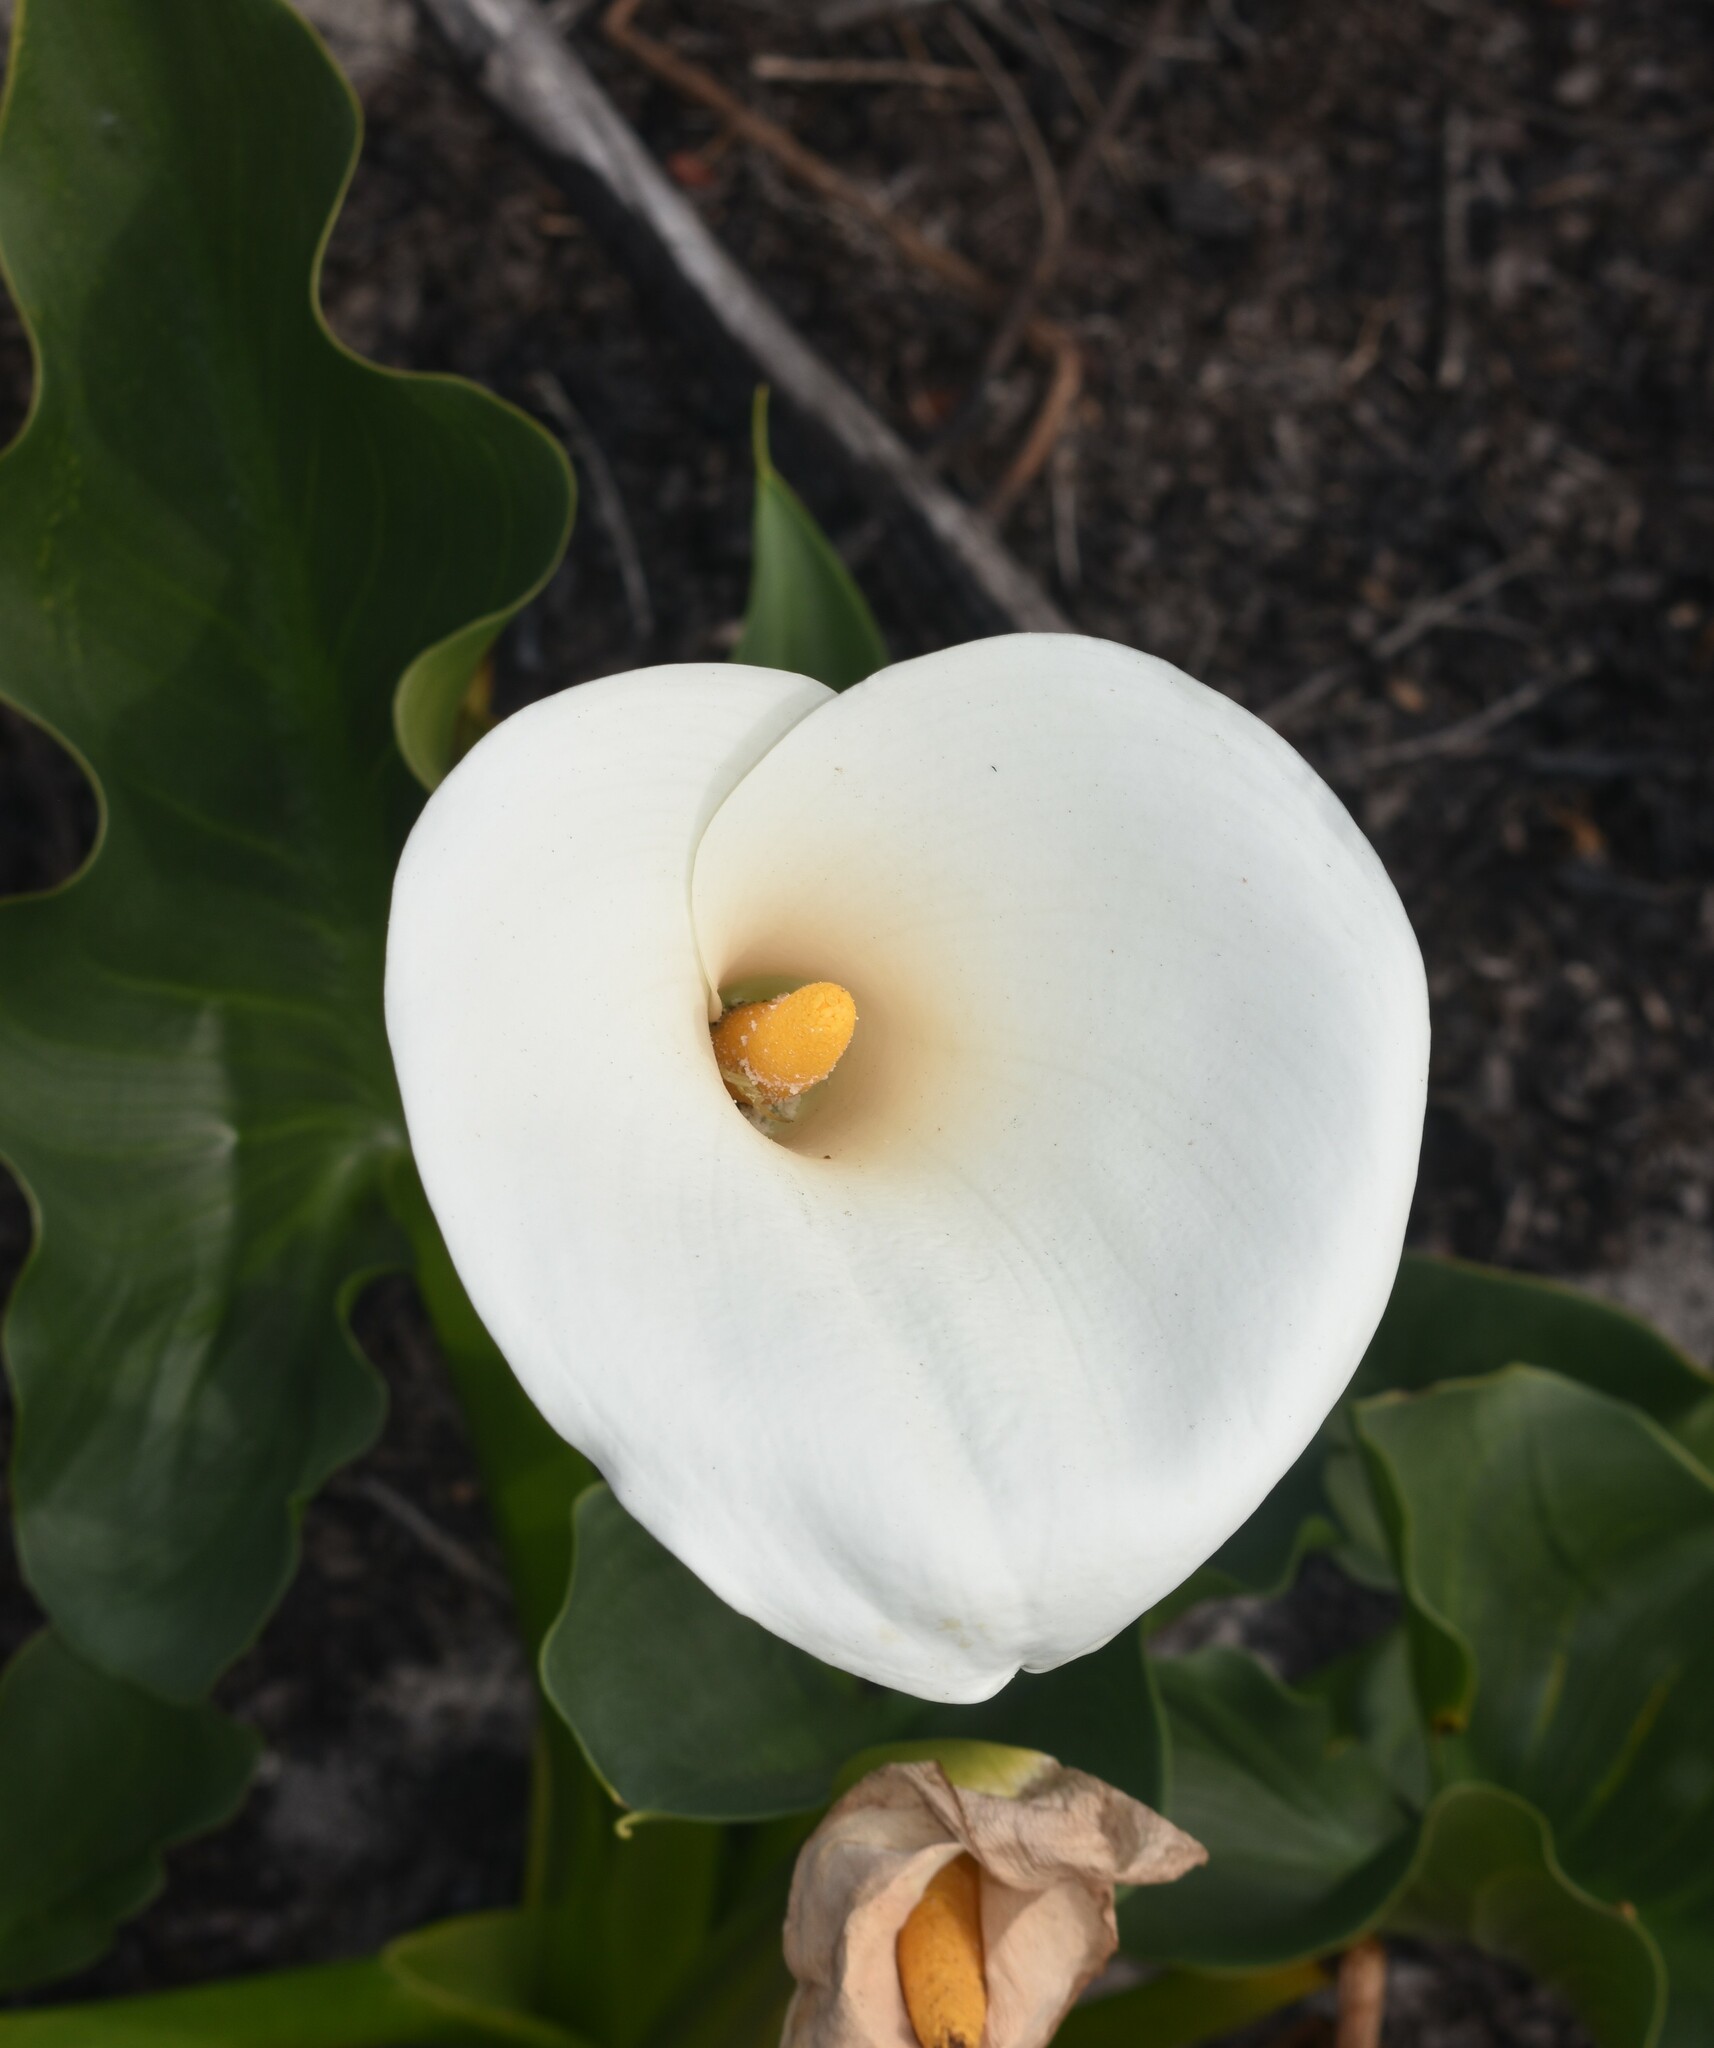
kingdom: Plantae
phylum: Tracheophyta
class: Liliopsida
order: Alismatales
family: Araceae
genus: Zantedeschia
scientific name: Zantedeschia aethiopica
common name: Altar-lily
